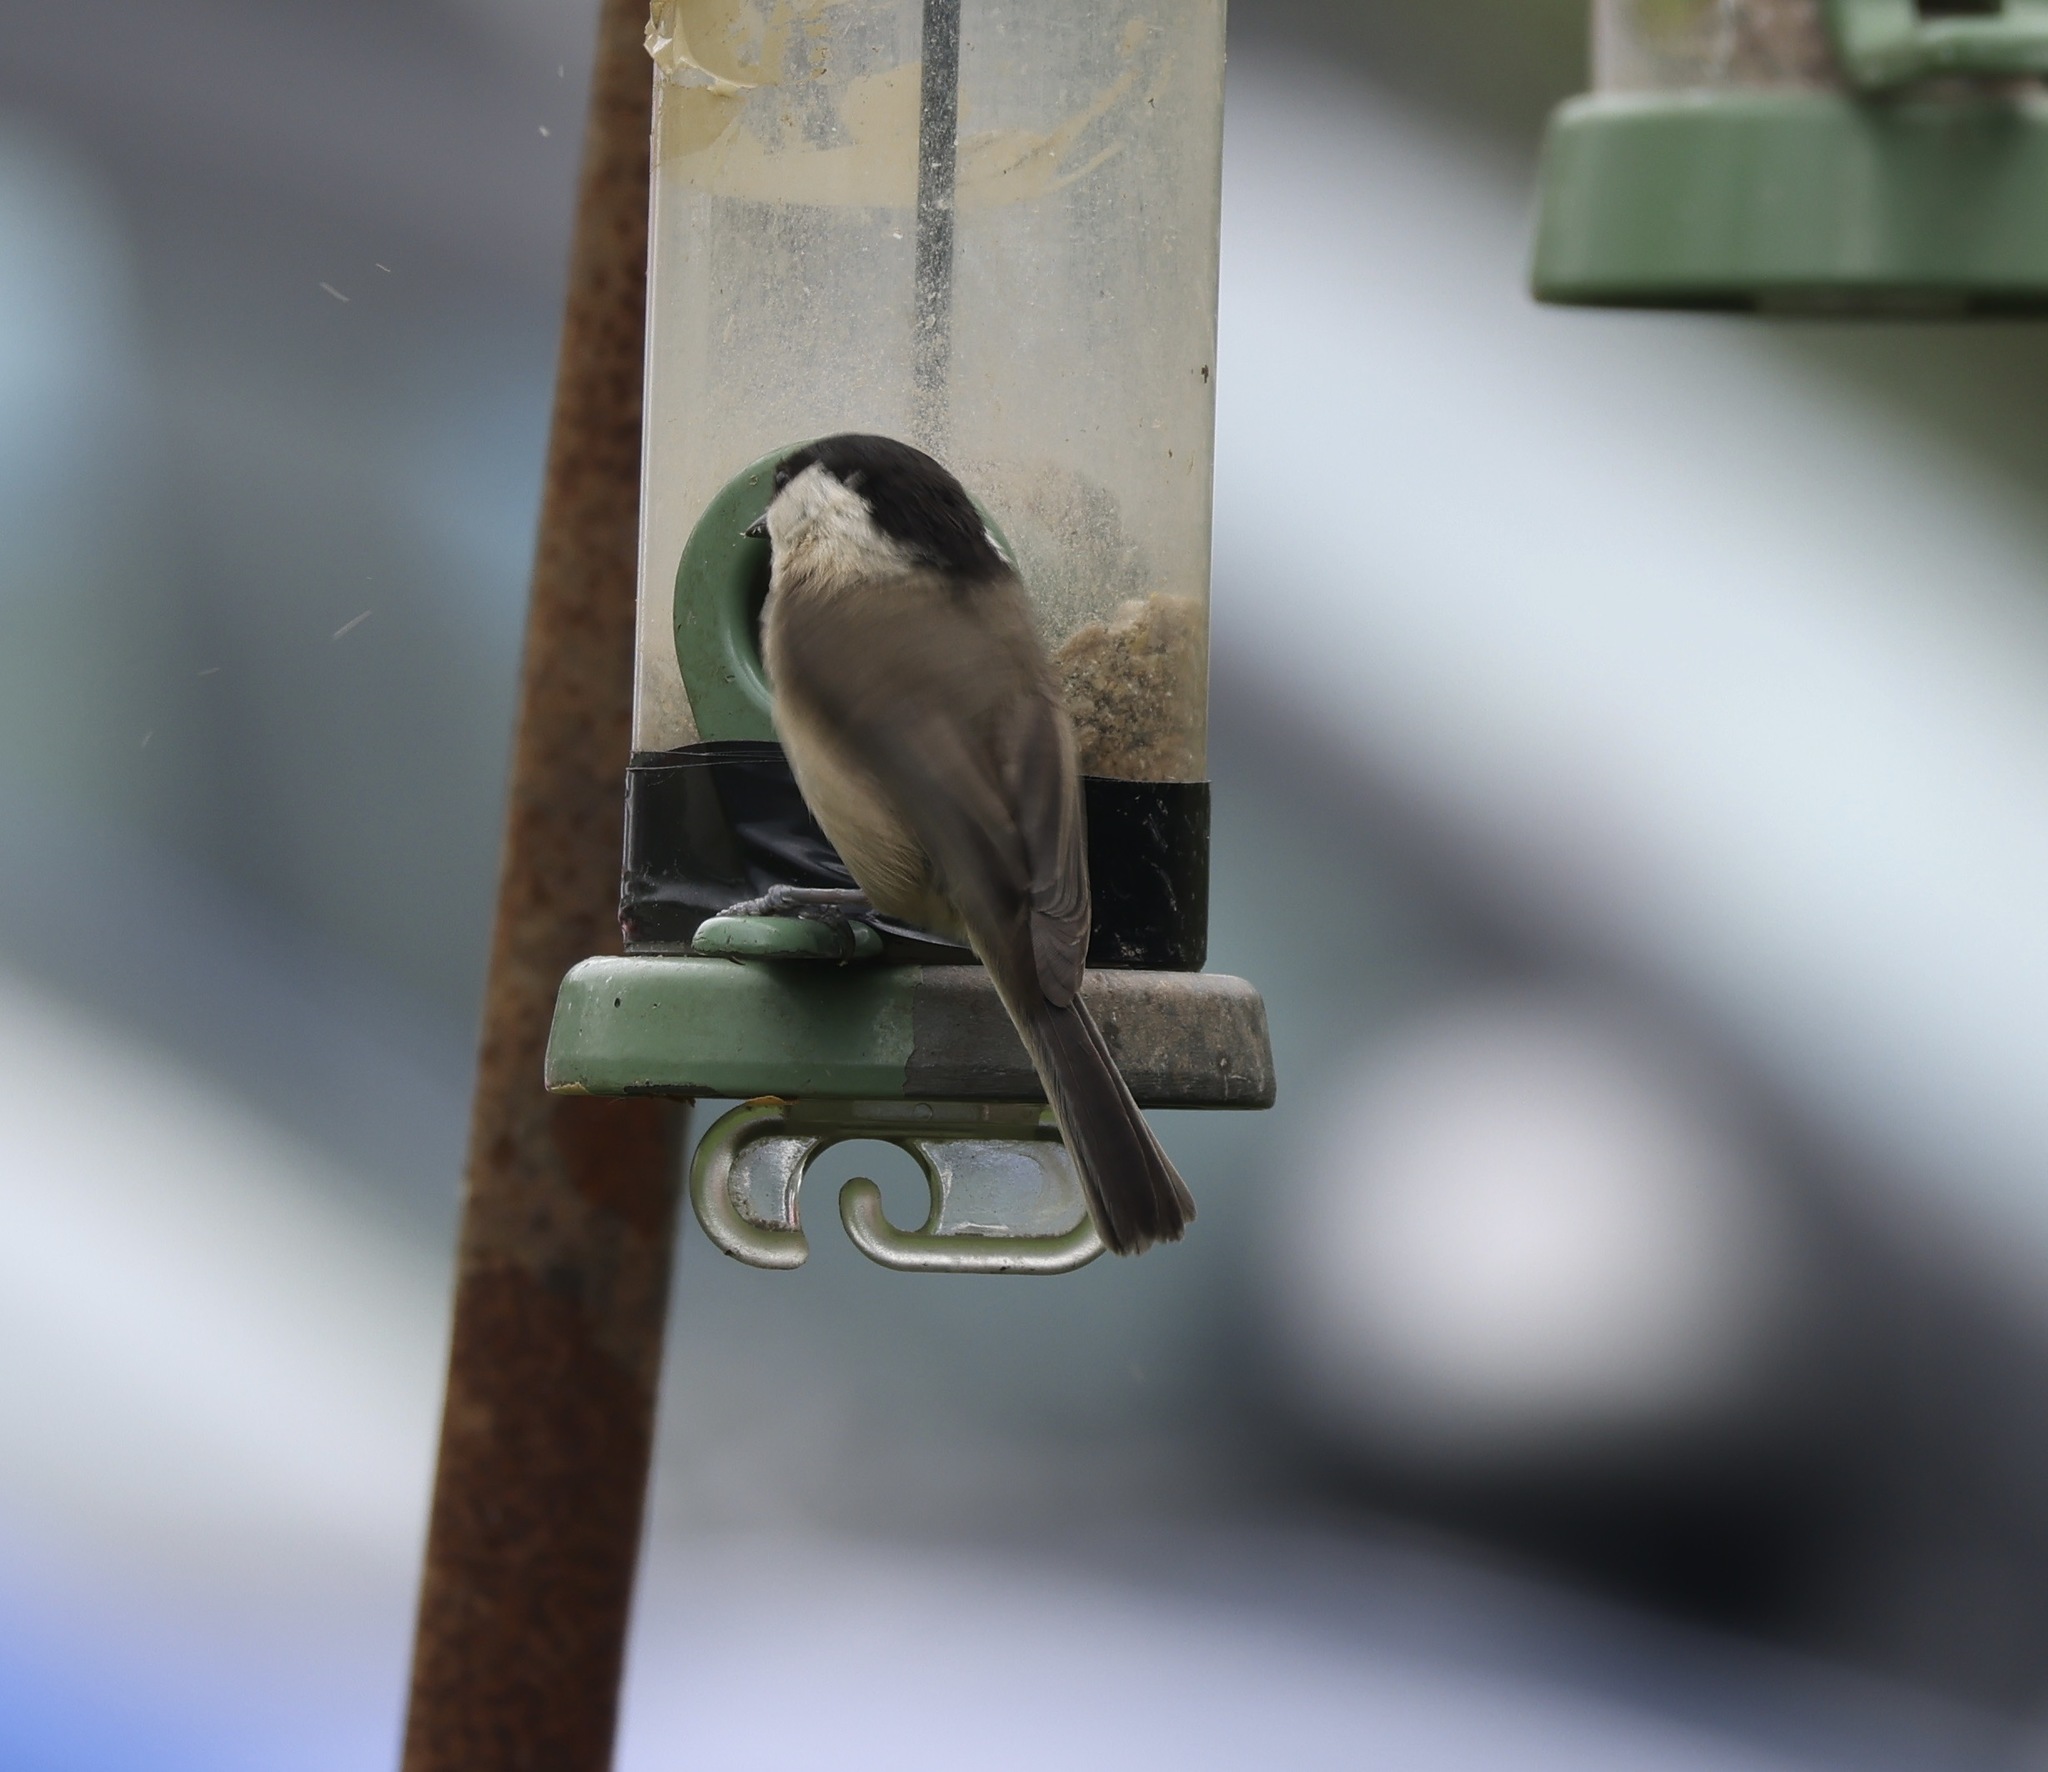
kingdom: Animalia
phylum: Chordata
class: Aves
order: Passeriformes
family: Paridae
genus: Poecile
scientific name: Poecile montanus
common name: Willow tit
